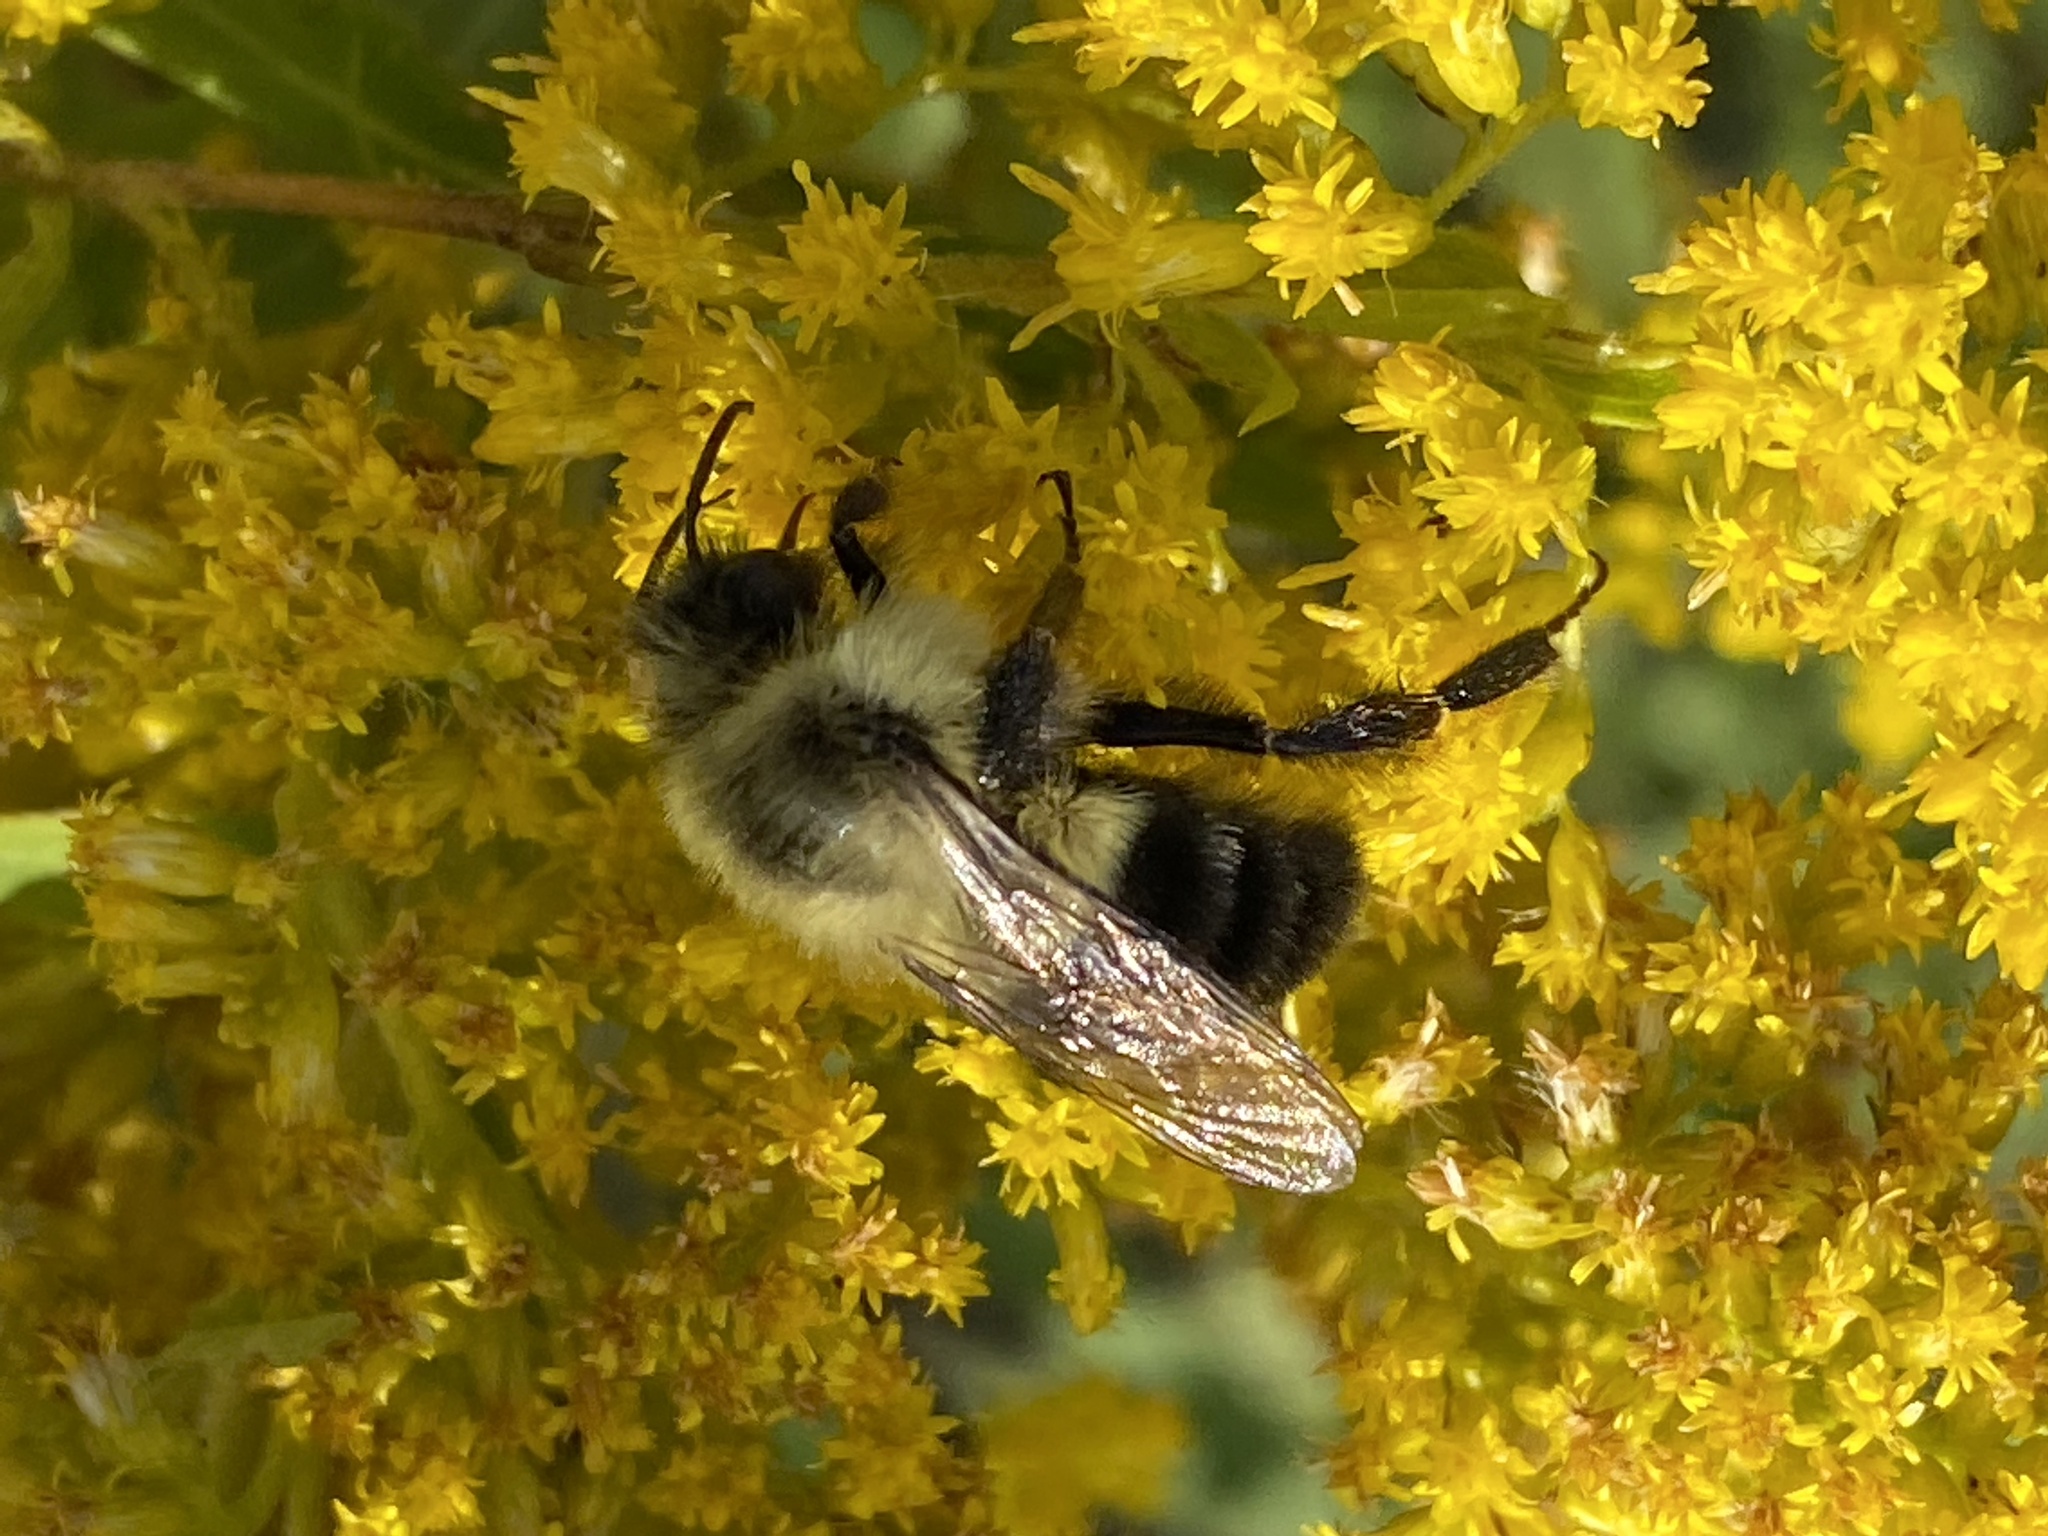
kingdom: Animalia
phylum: Arthropoda
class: Insecta
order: Hymenoptera
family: Apidae
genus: Bombus
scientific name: Bombus impatiens
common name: Common eastern bumble bee
